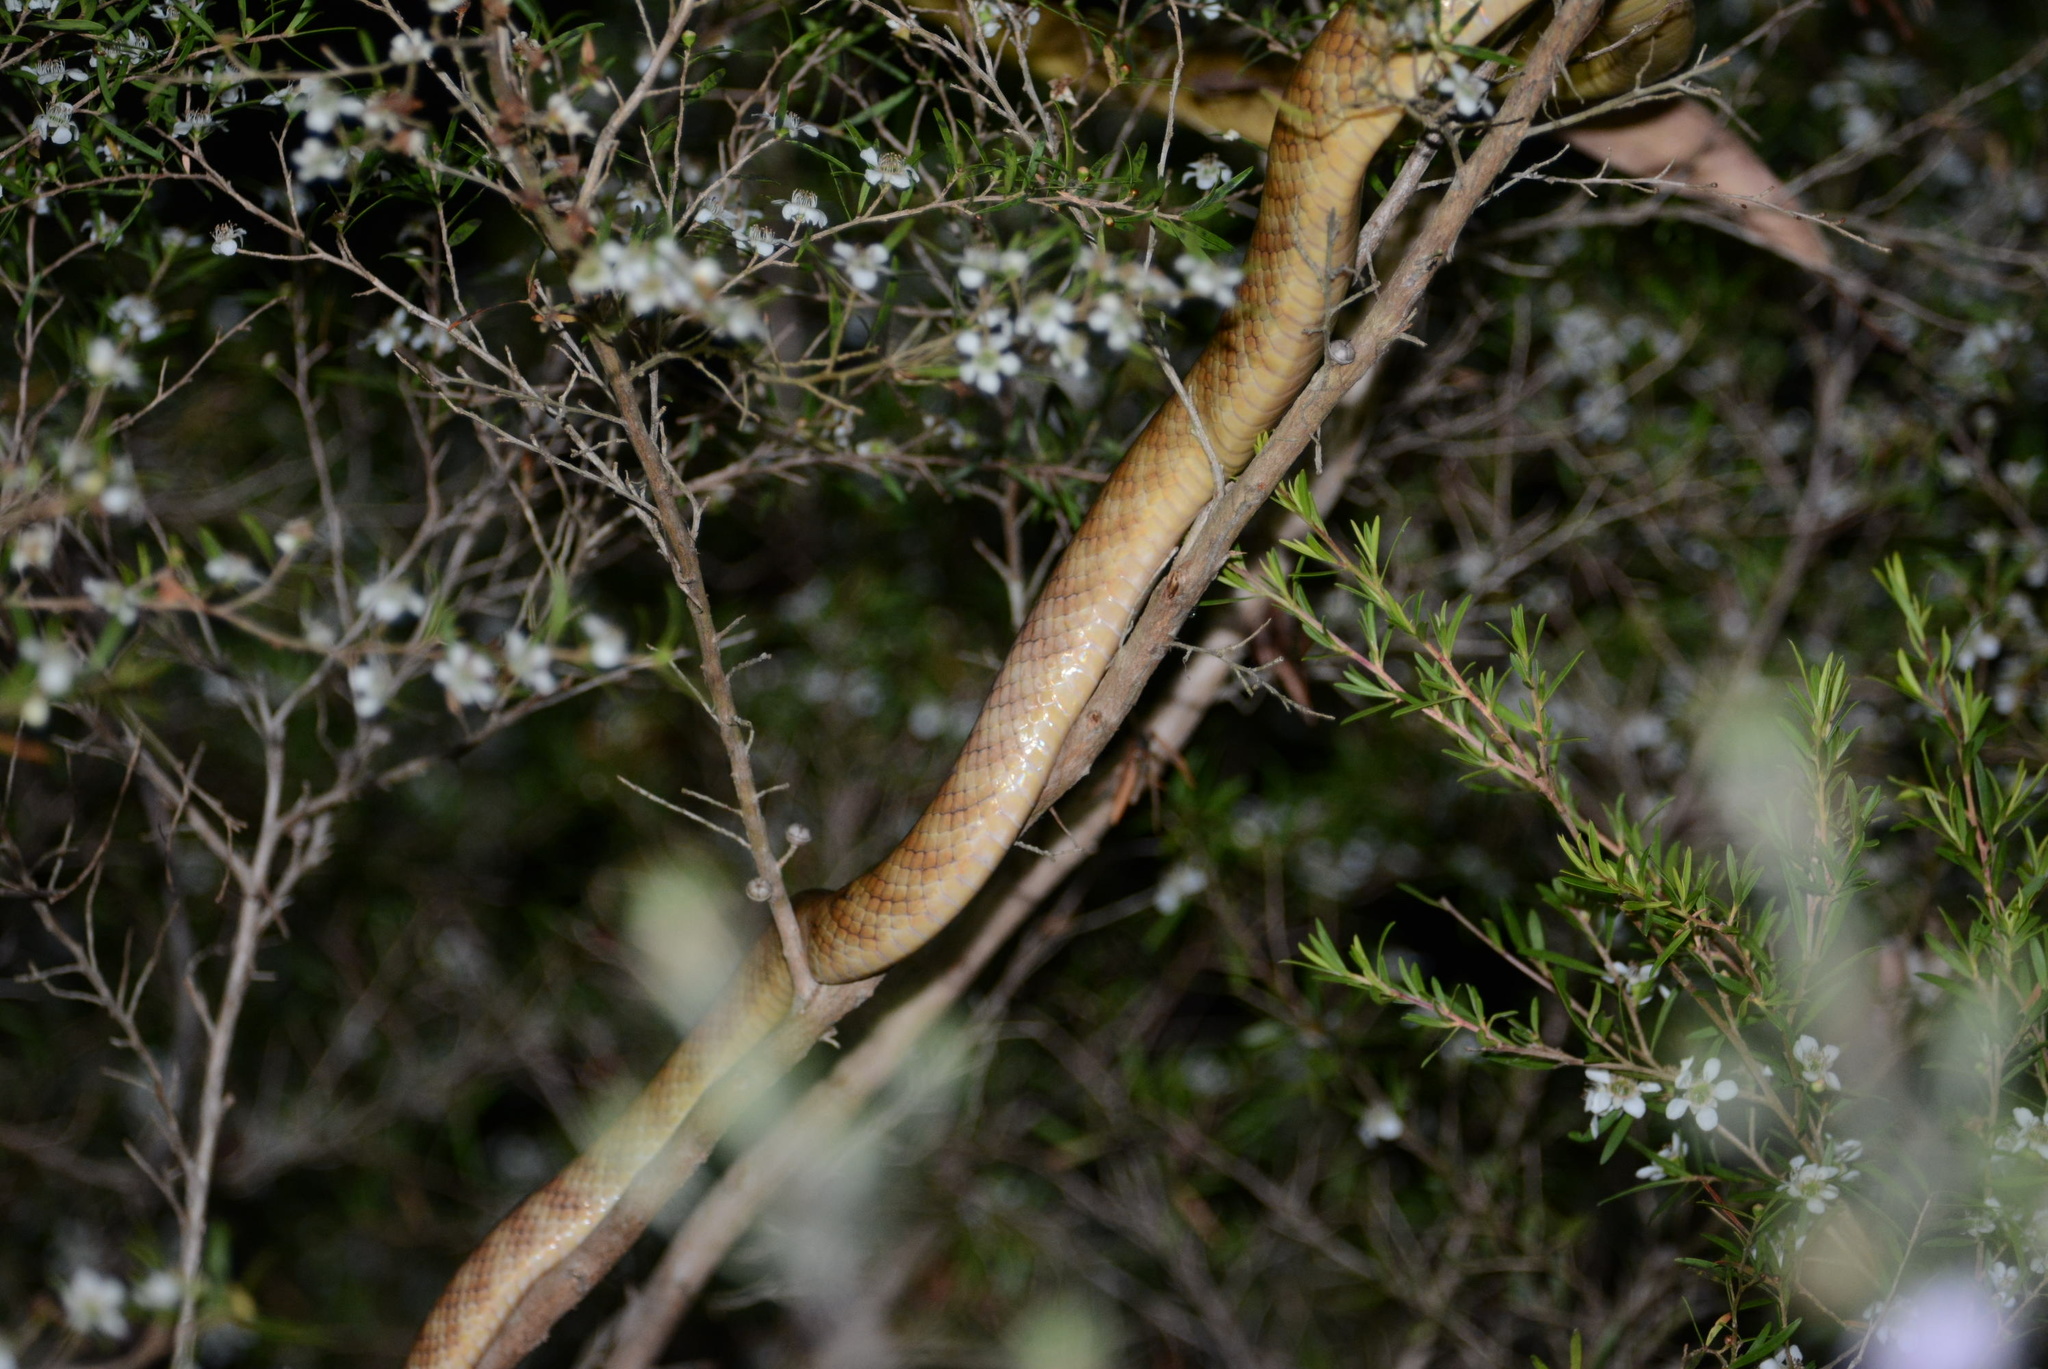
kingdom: Animalia
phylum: Chordata
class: Squamata
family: Colubridae
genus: Boiga
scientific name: Boiga irregularis
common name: Brown tree snake
